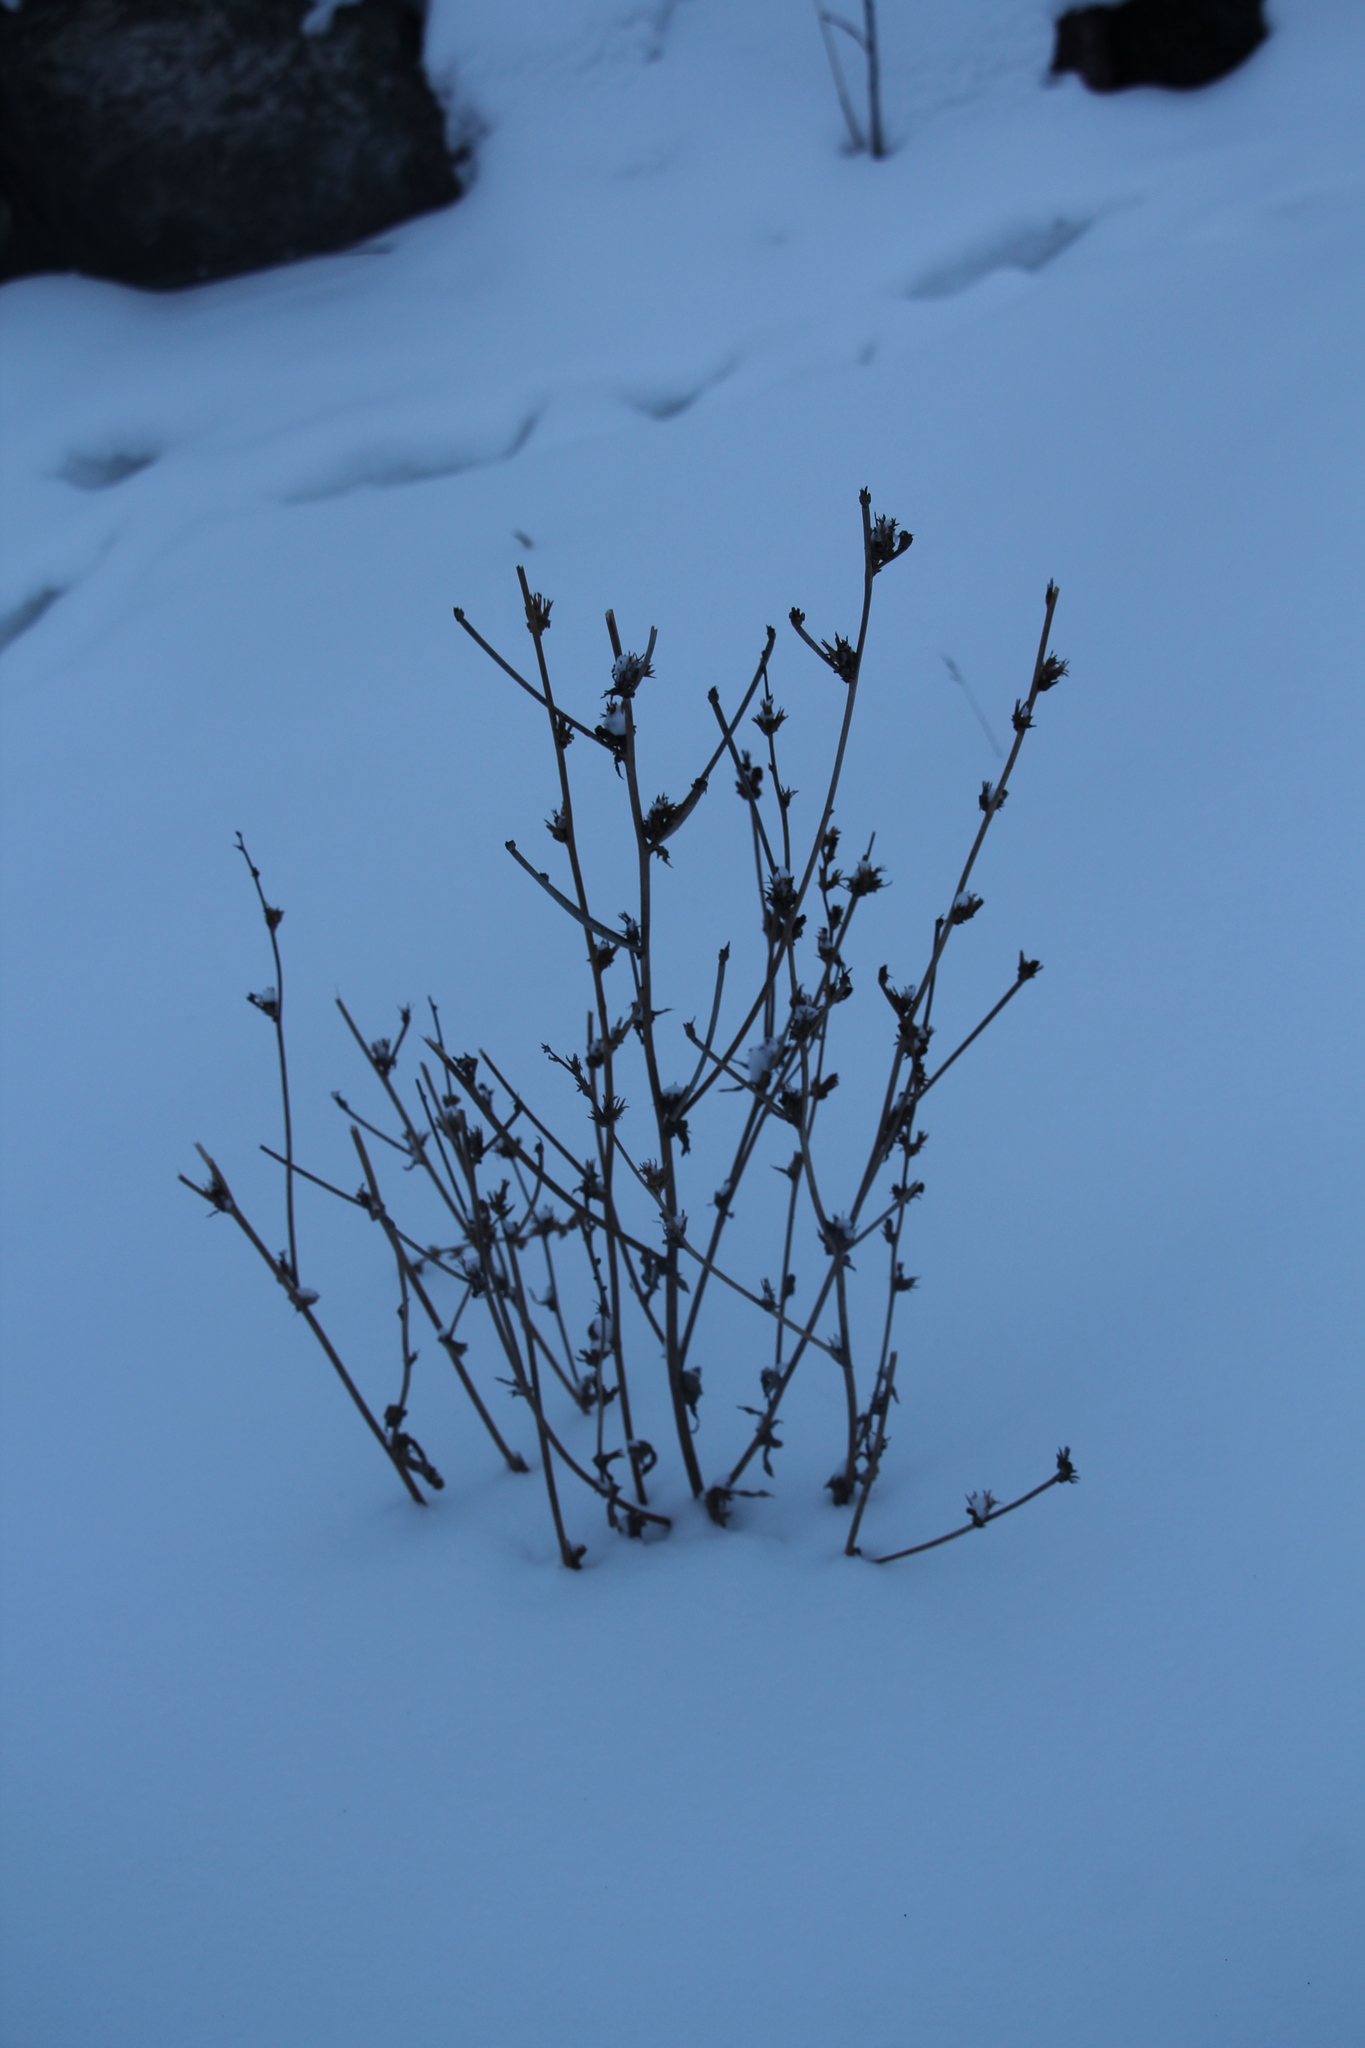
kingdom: Plantae
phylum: Tracheophyta
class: Magnoliopsida
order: Asterales
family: Asteraceae
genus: Cichorium
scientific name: Cichorium intybus
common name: Chicory
